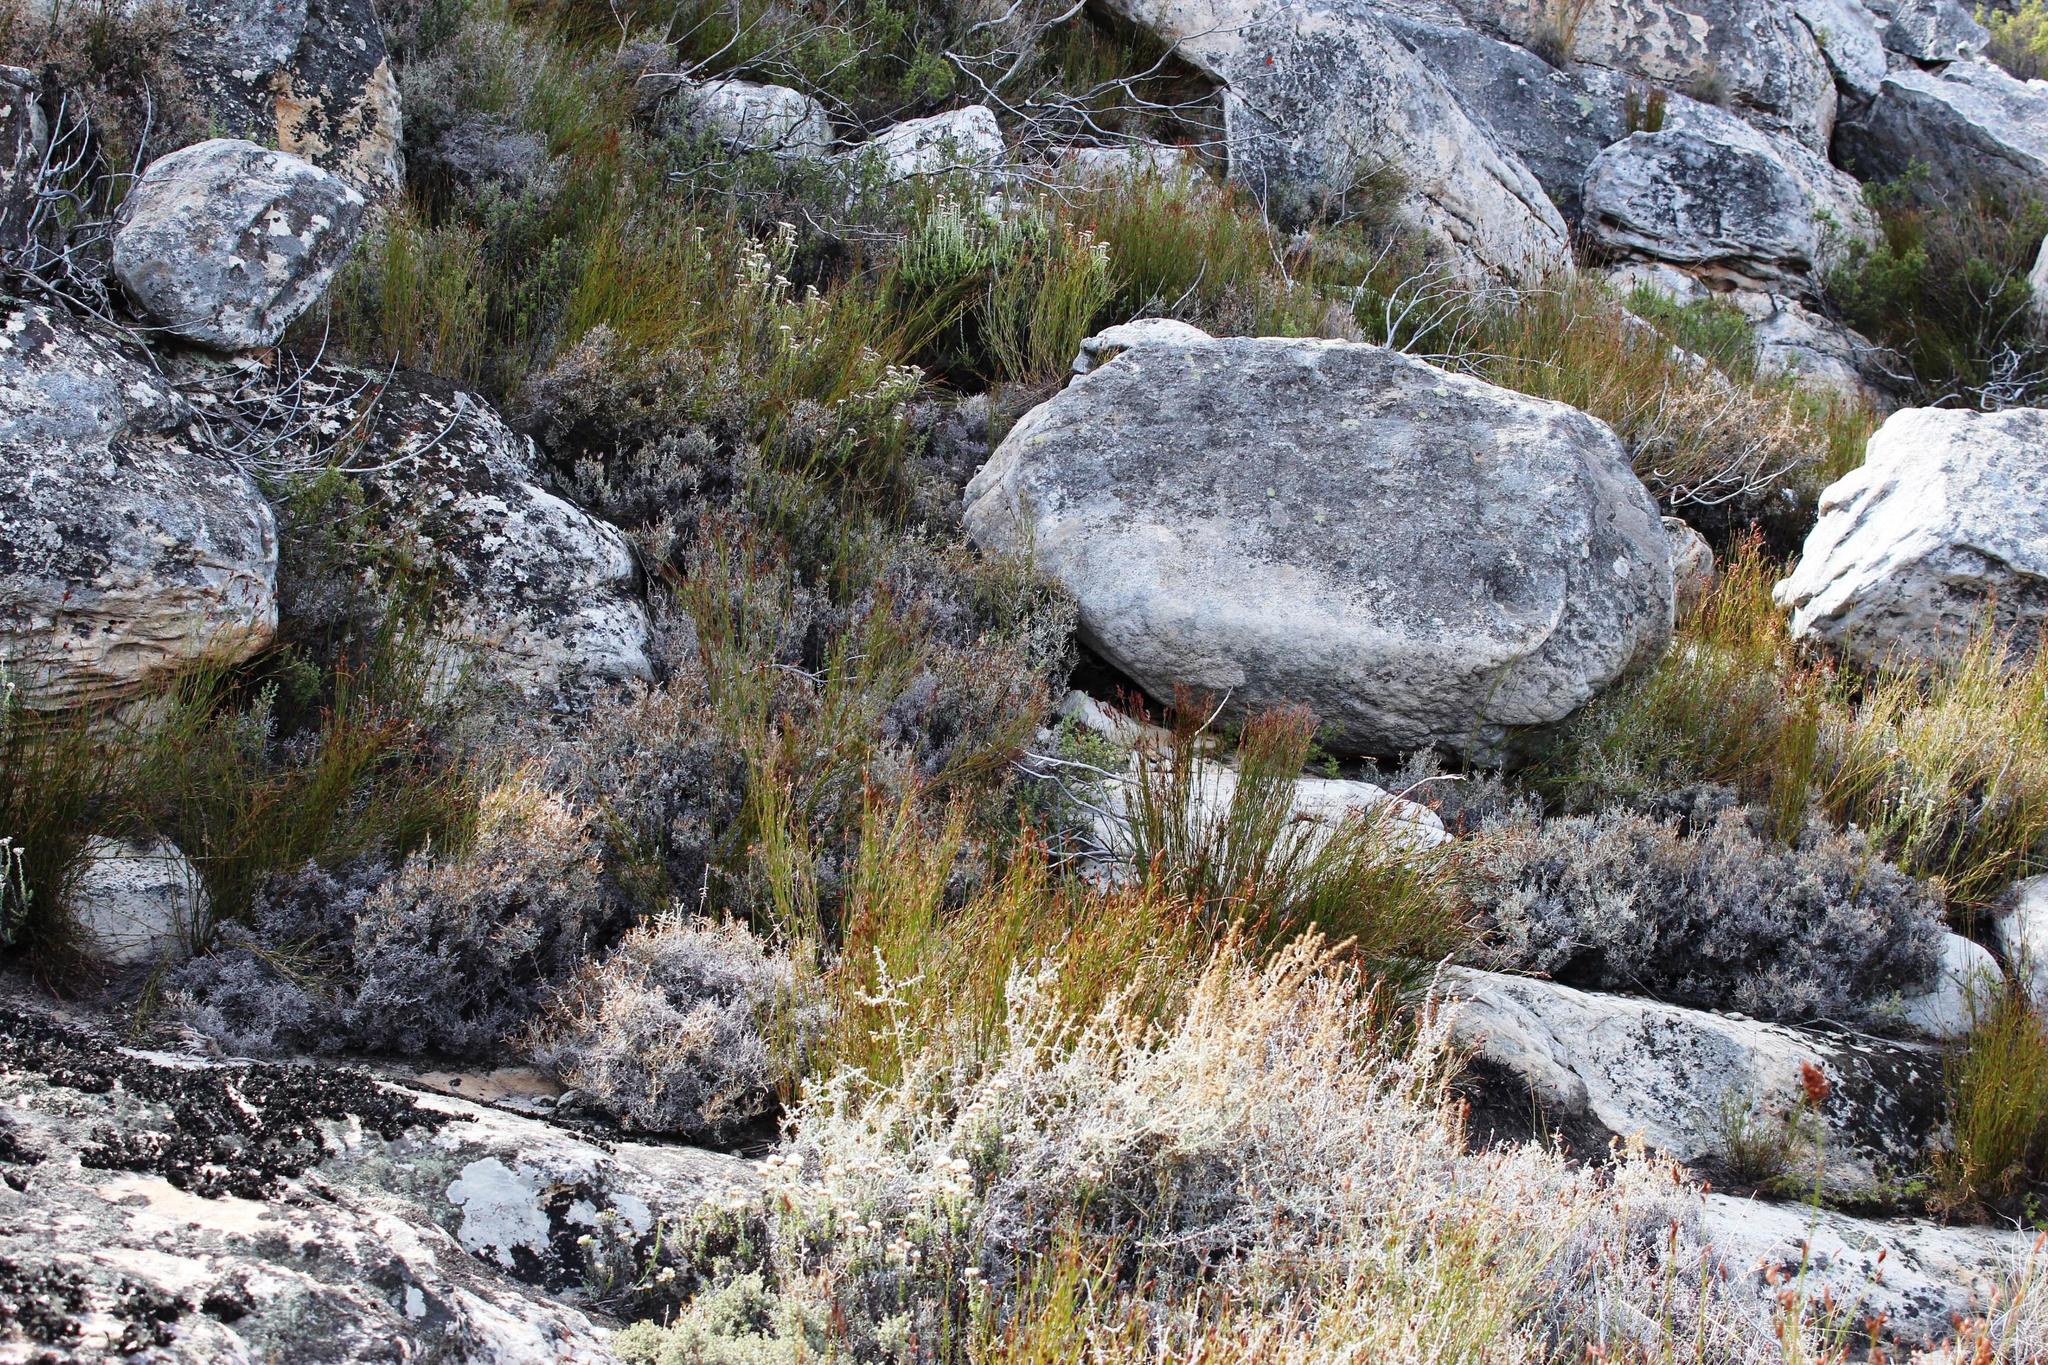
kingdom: Plantae
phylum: Tracheophyta
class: Magnoliopsida
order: Asterales
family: Asteraceae
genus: Seriphium
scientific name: Seriphium plumosum
